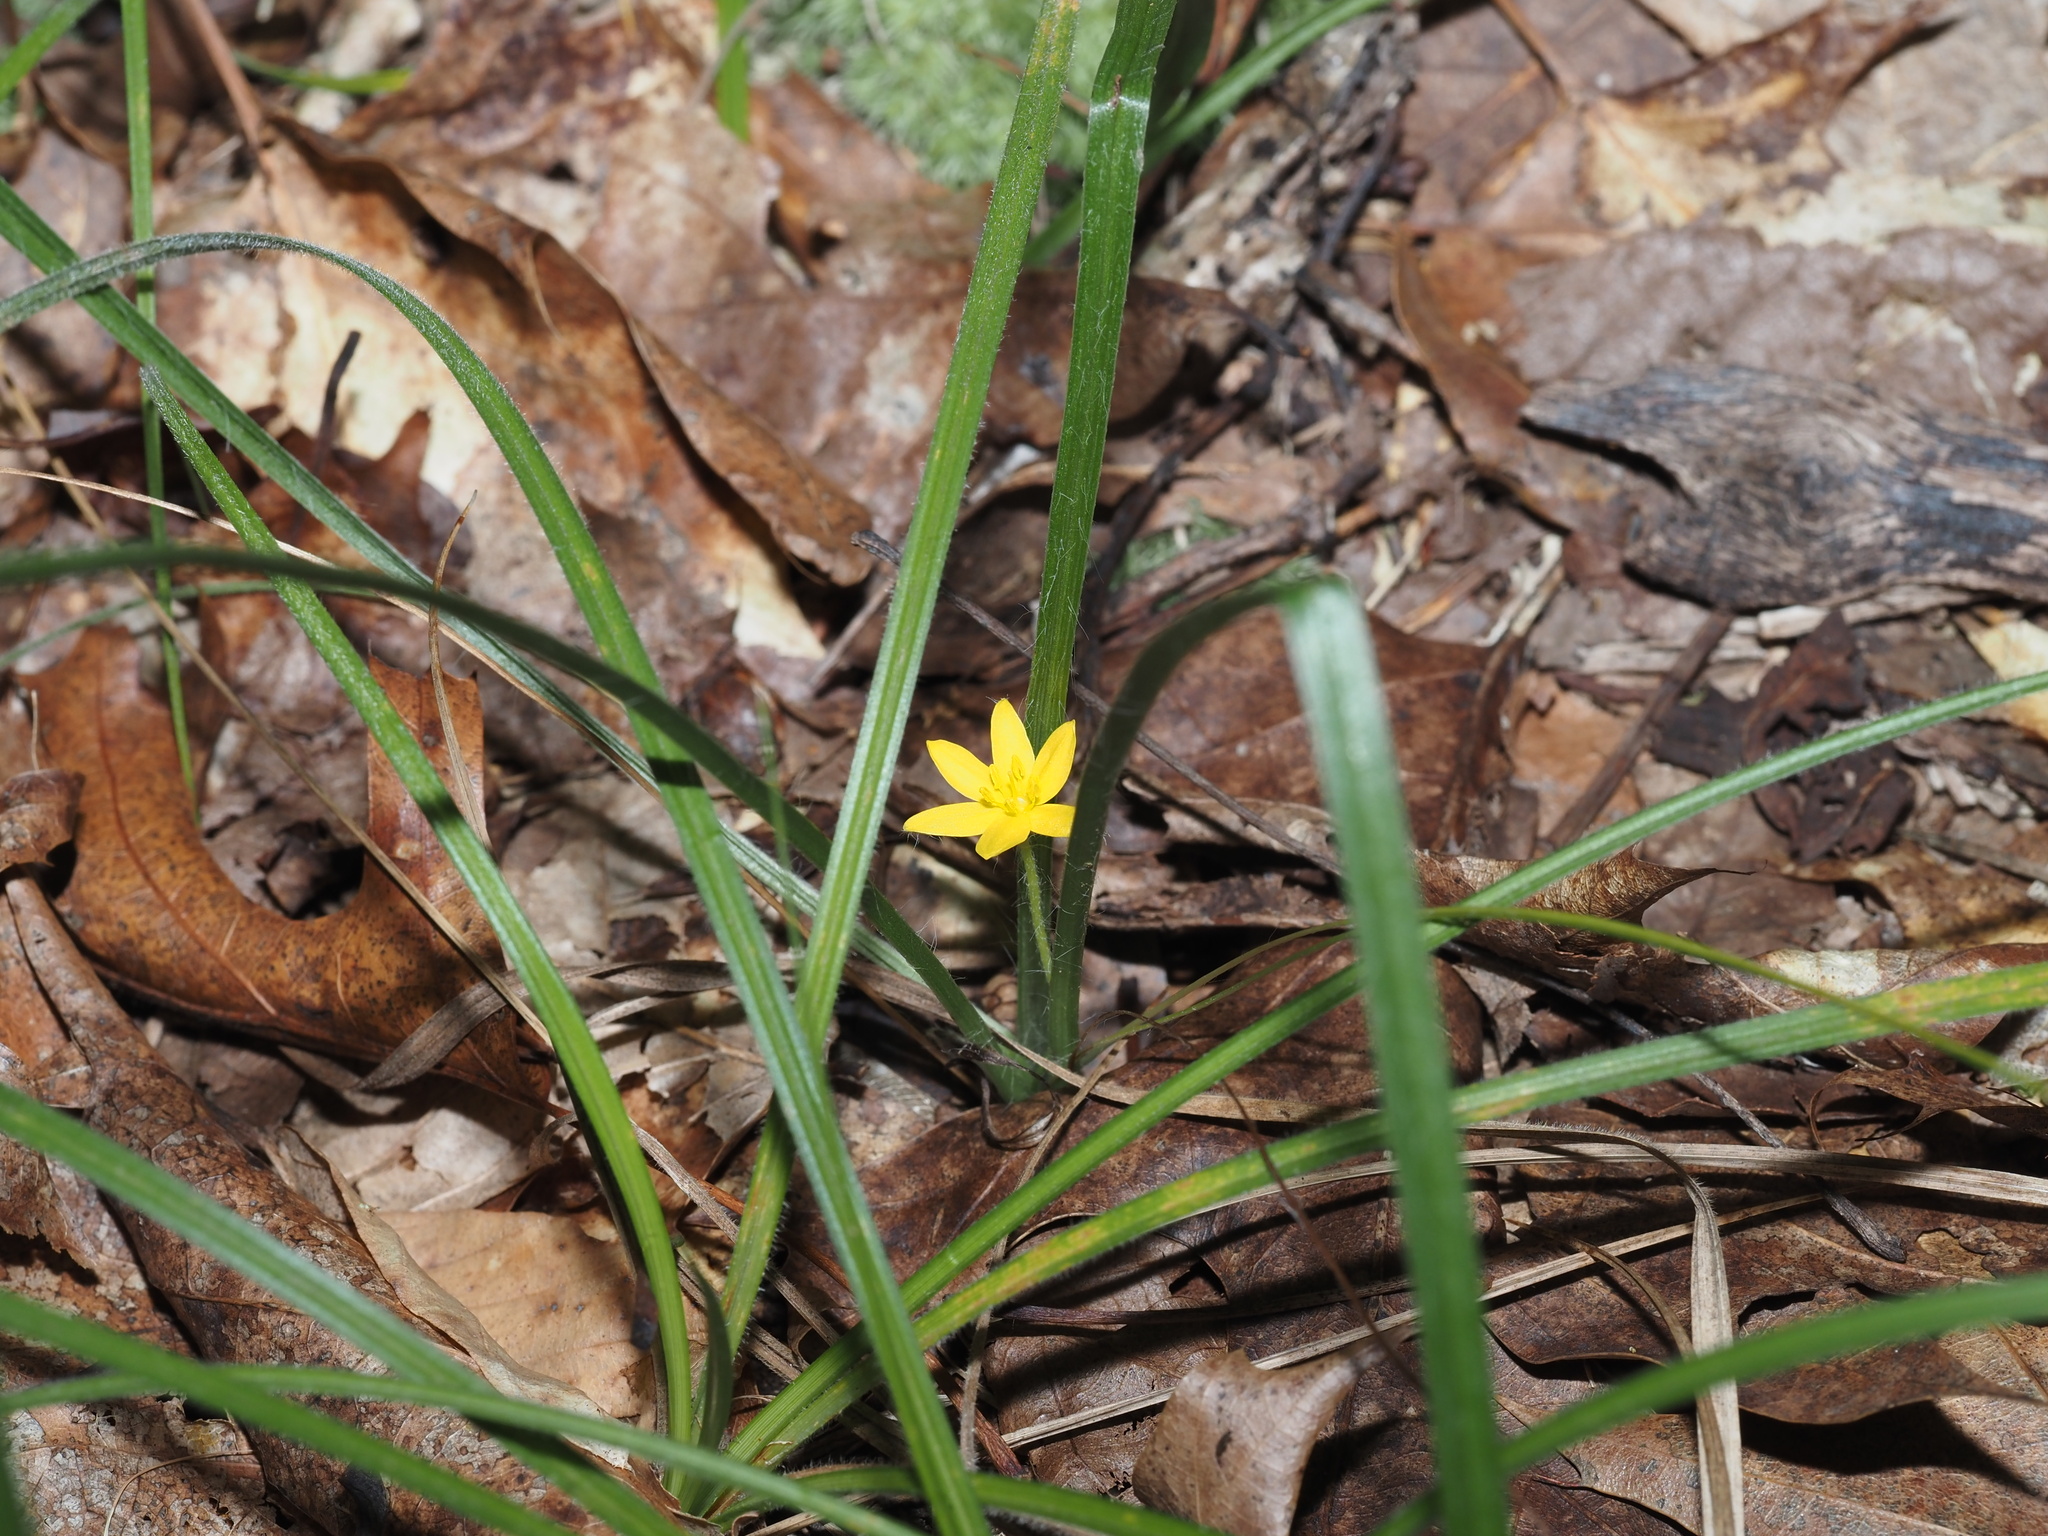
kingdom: Plantae
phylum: Tracheophyta
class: Liliopsida
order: Asparagales
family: Hypoxidaceae
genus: Hypoxis
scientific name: Hypoxis hirsuta
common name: Common goldstar
